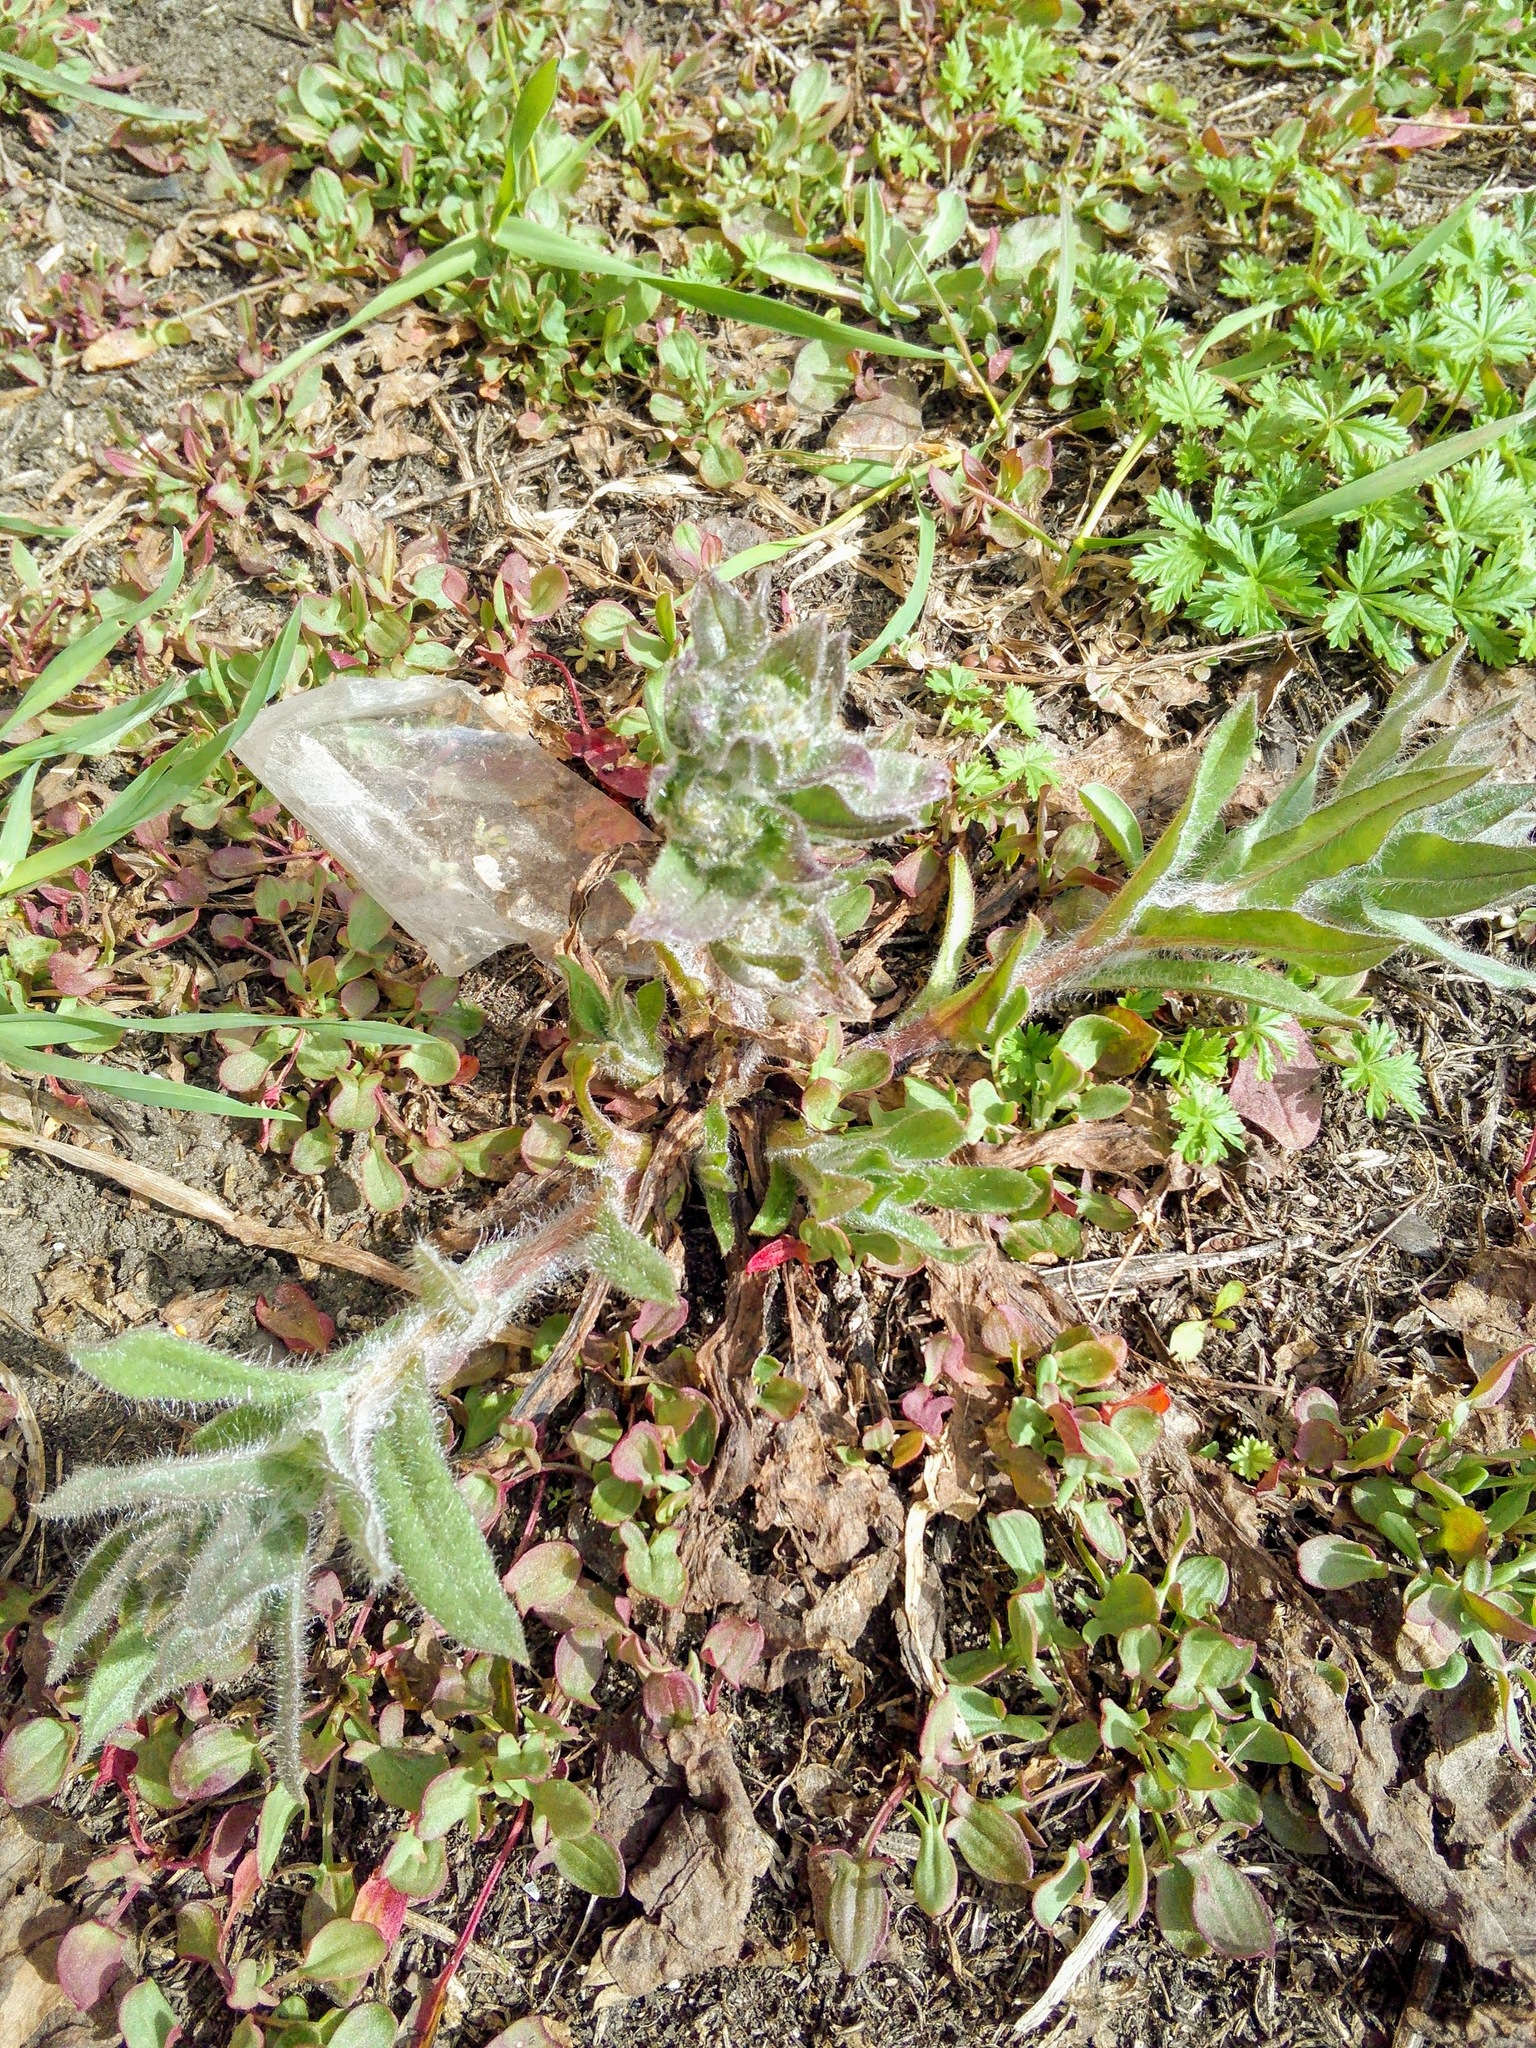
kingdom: Plantae
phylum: Tracheophyta
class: Magnoliopsida
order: Boraginales
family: Boraginaceae
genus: Nonea
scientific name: Nonea pulla
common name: Brown nonea
